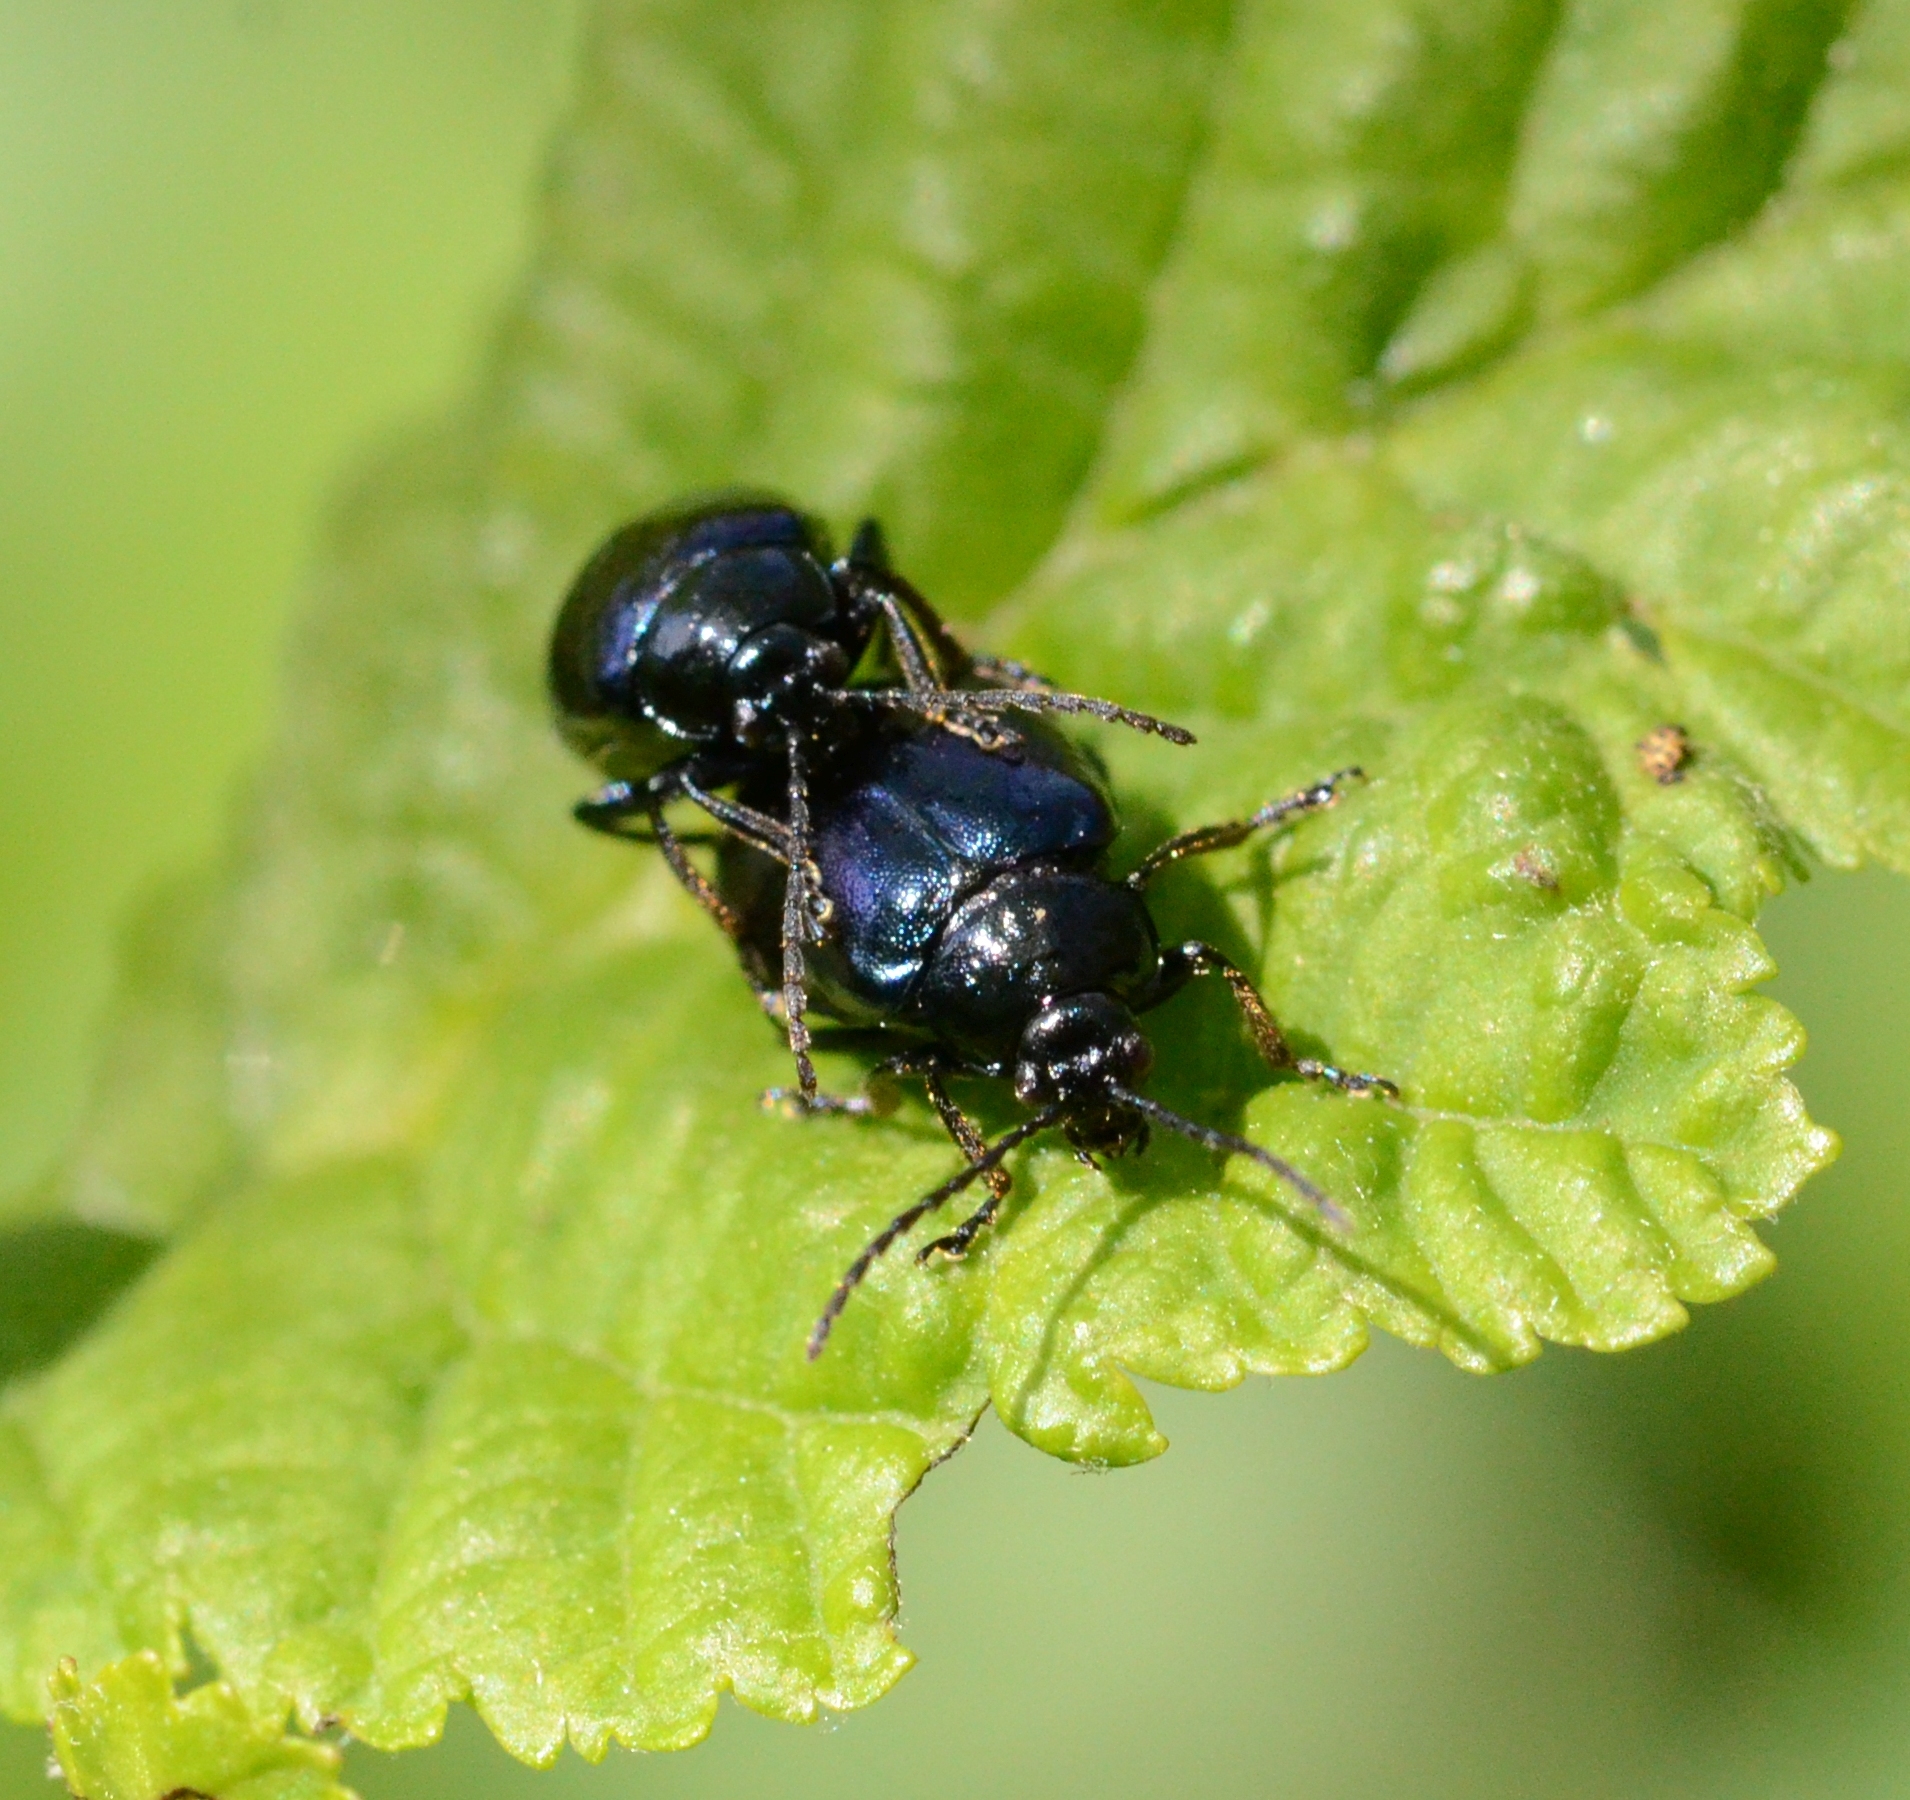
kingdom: Animalia
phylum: Arthropoda
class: Insecta
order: Coleoptera
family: Chrysomelidae
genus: Agelastica
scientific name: Agelastica alni
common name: Alder leaf beetle
